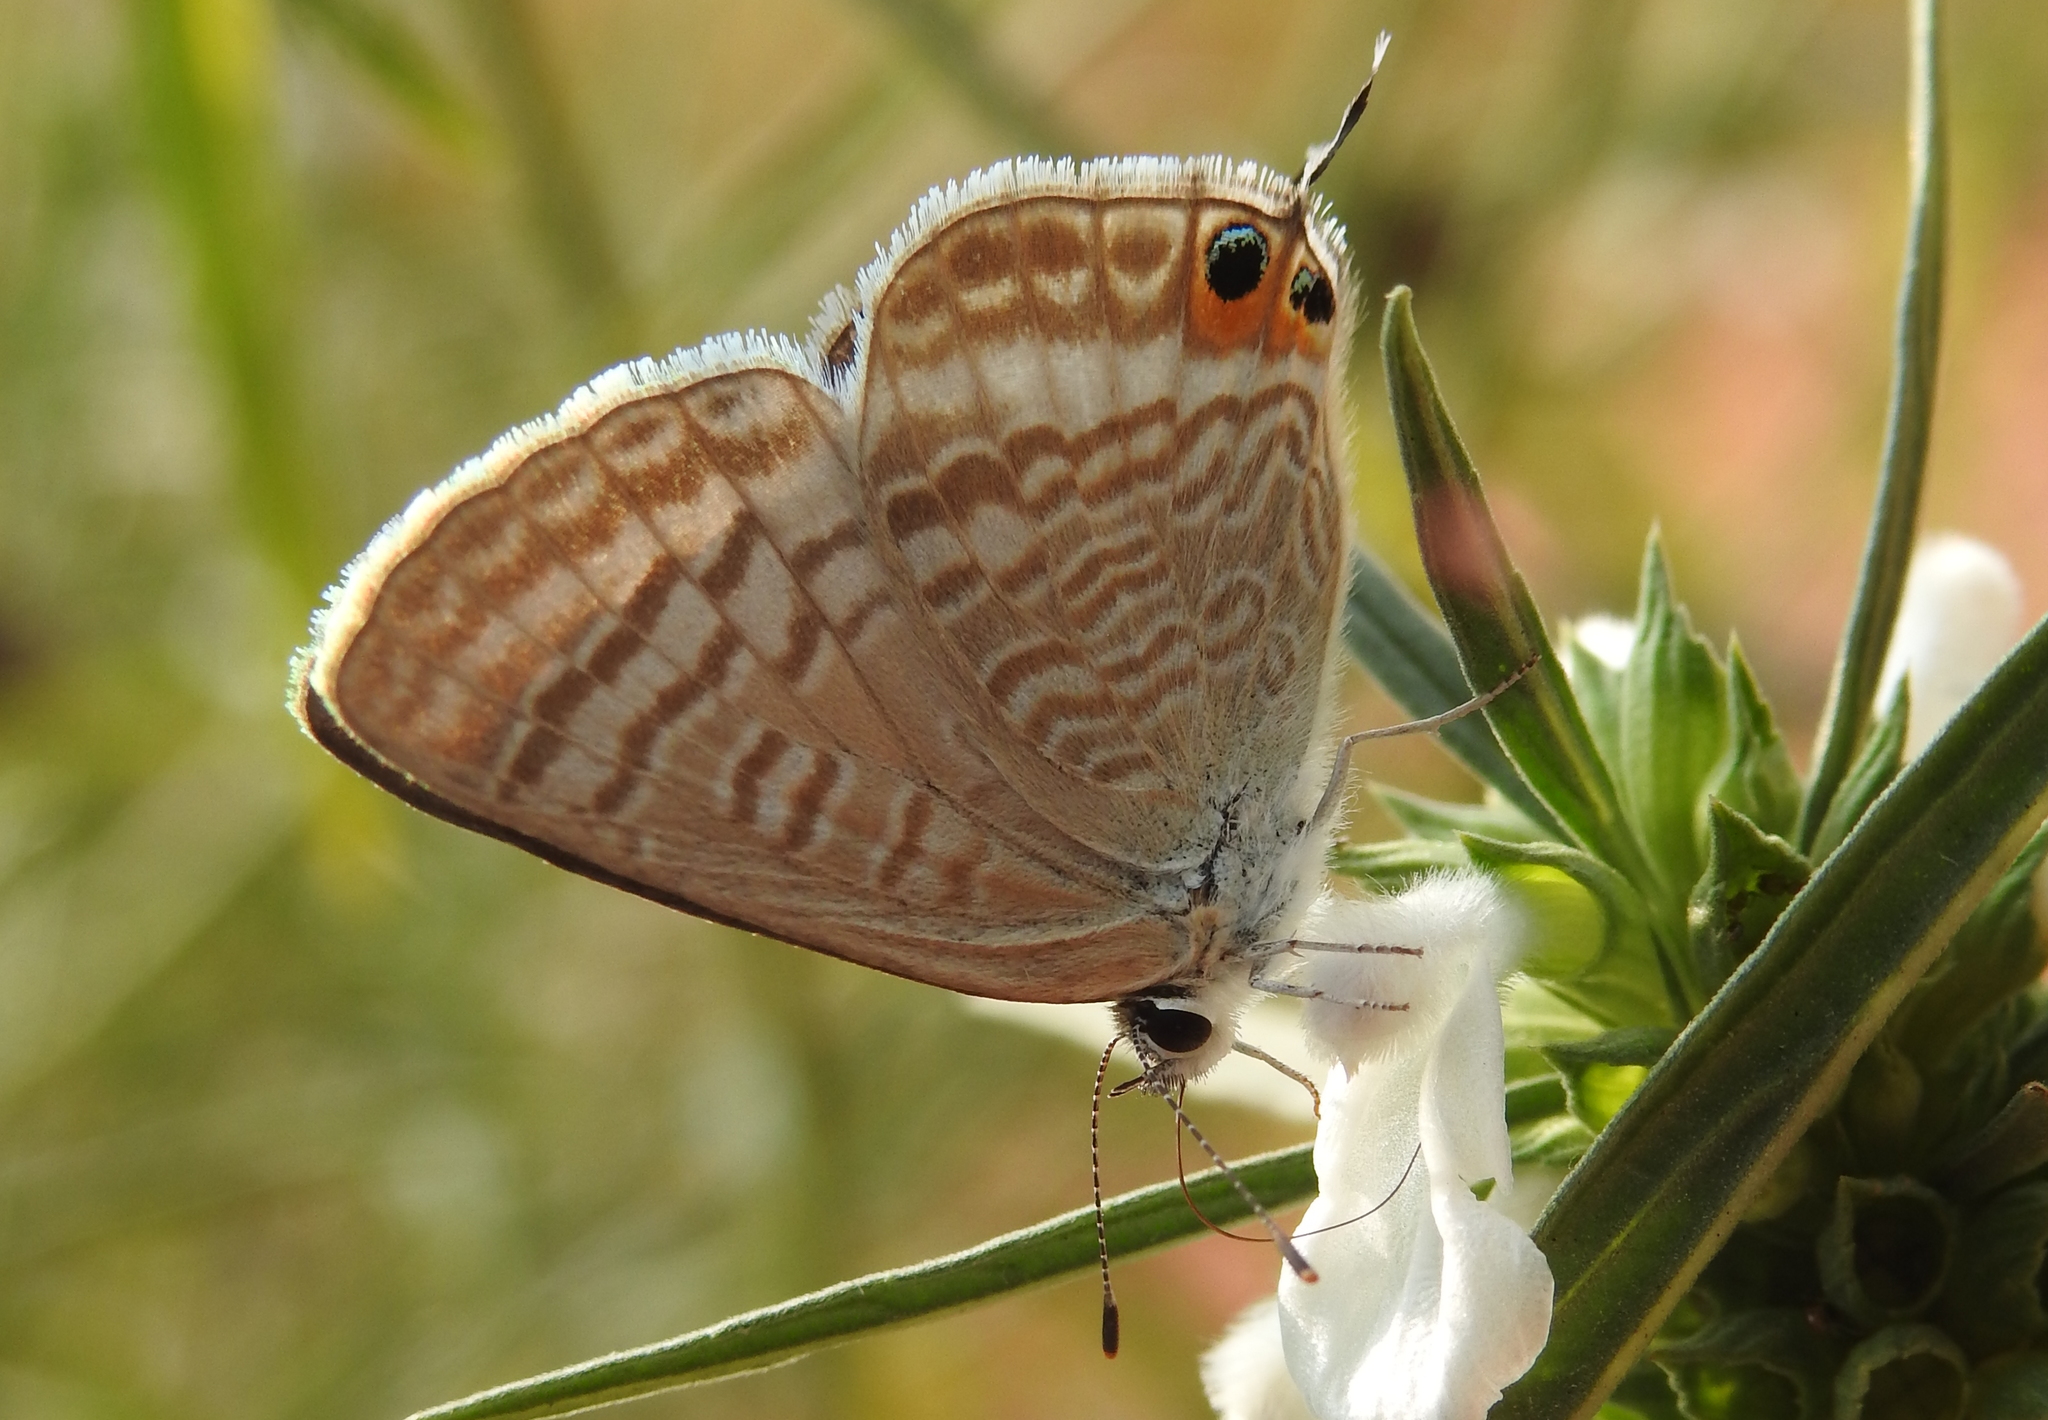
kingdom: Animalia
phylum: Arthropoda
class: Insecta
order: Lepidoptera
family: Lycaenidae
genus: Lampides
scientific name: Lampides boeticus
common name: Long-tailed blue
